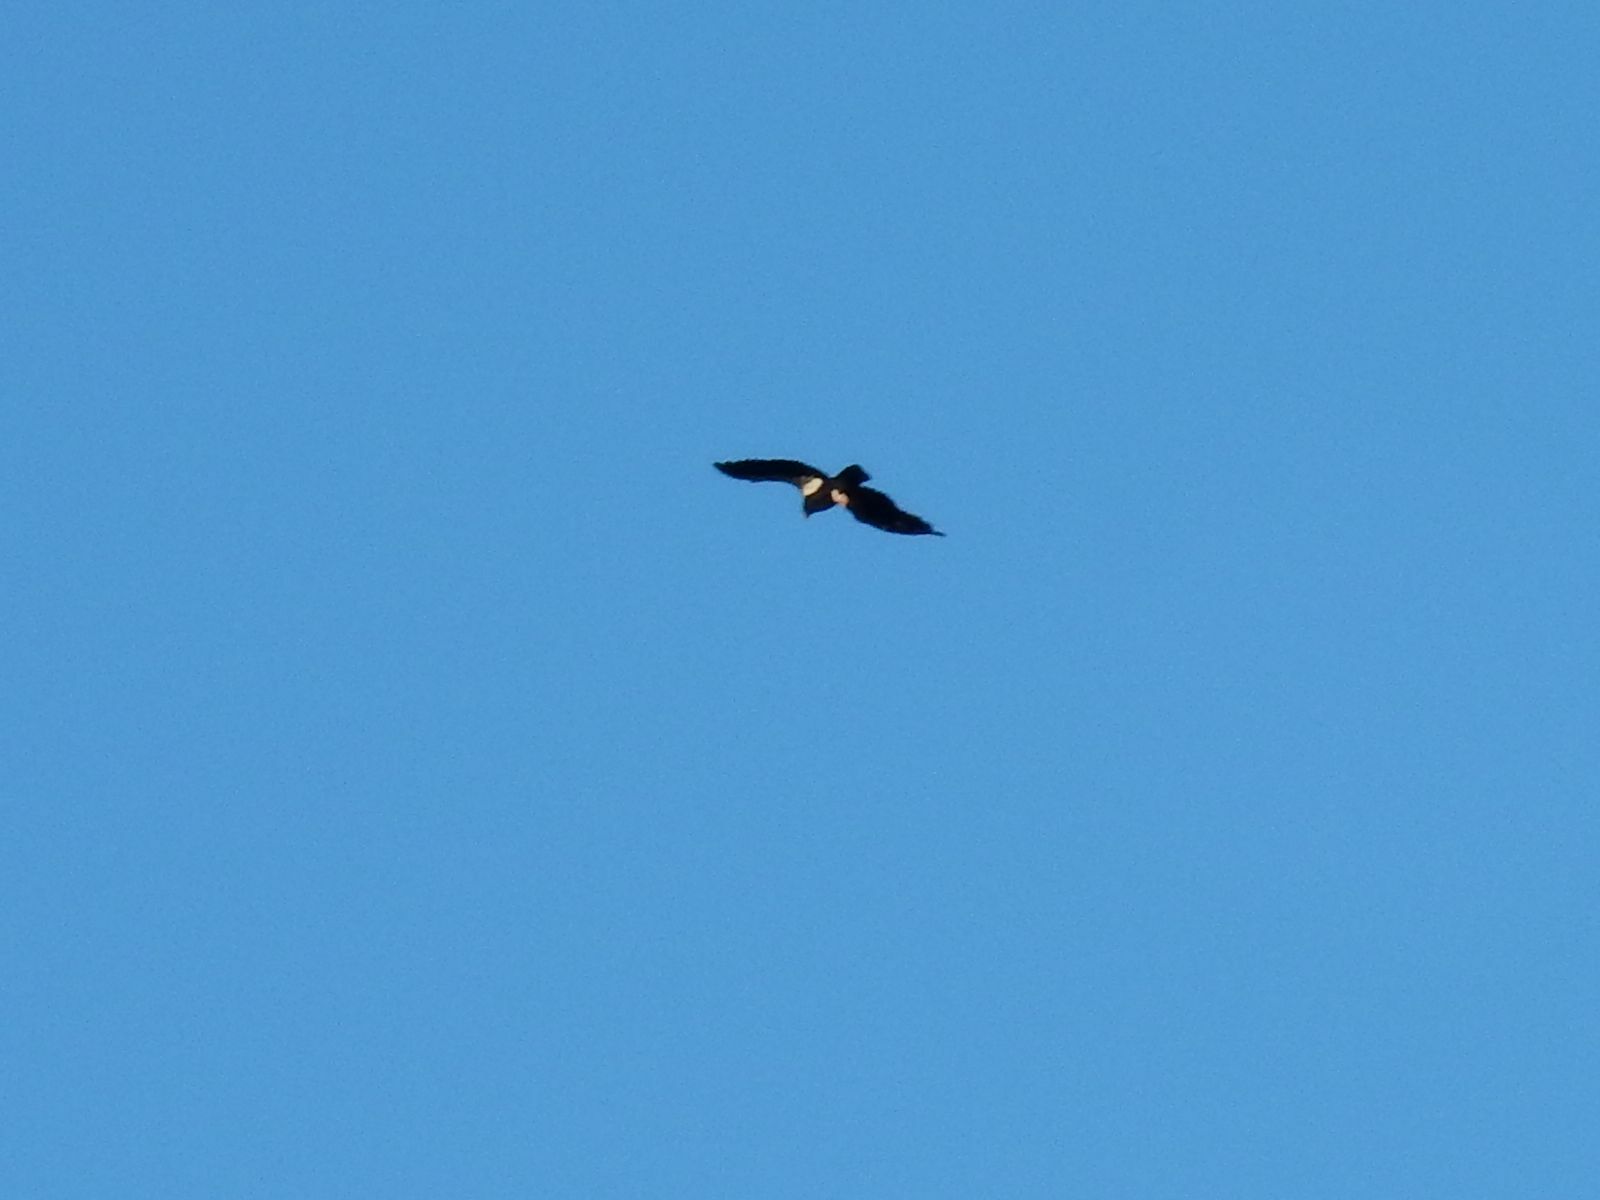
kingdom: Animalia
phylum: Chordata
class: Aves
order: Accipitriformes
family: Cathartidae
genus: Gymnogyps
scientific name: Gymnogyps californianus
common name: California condor
